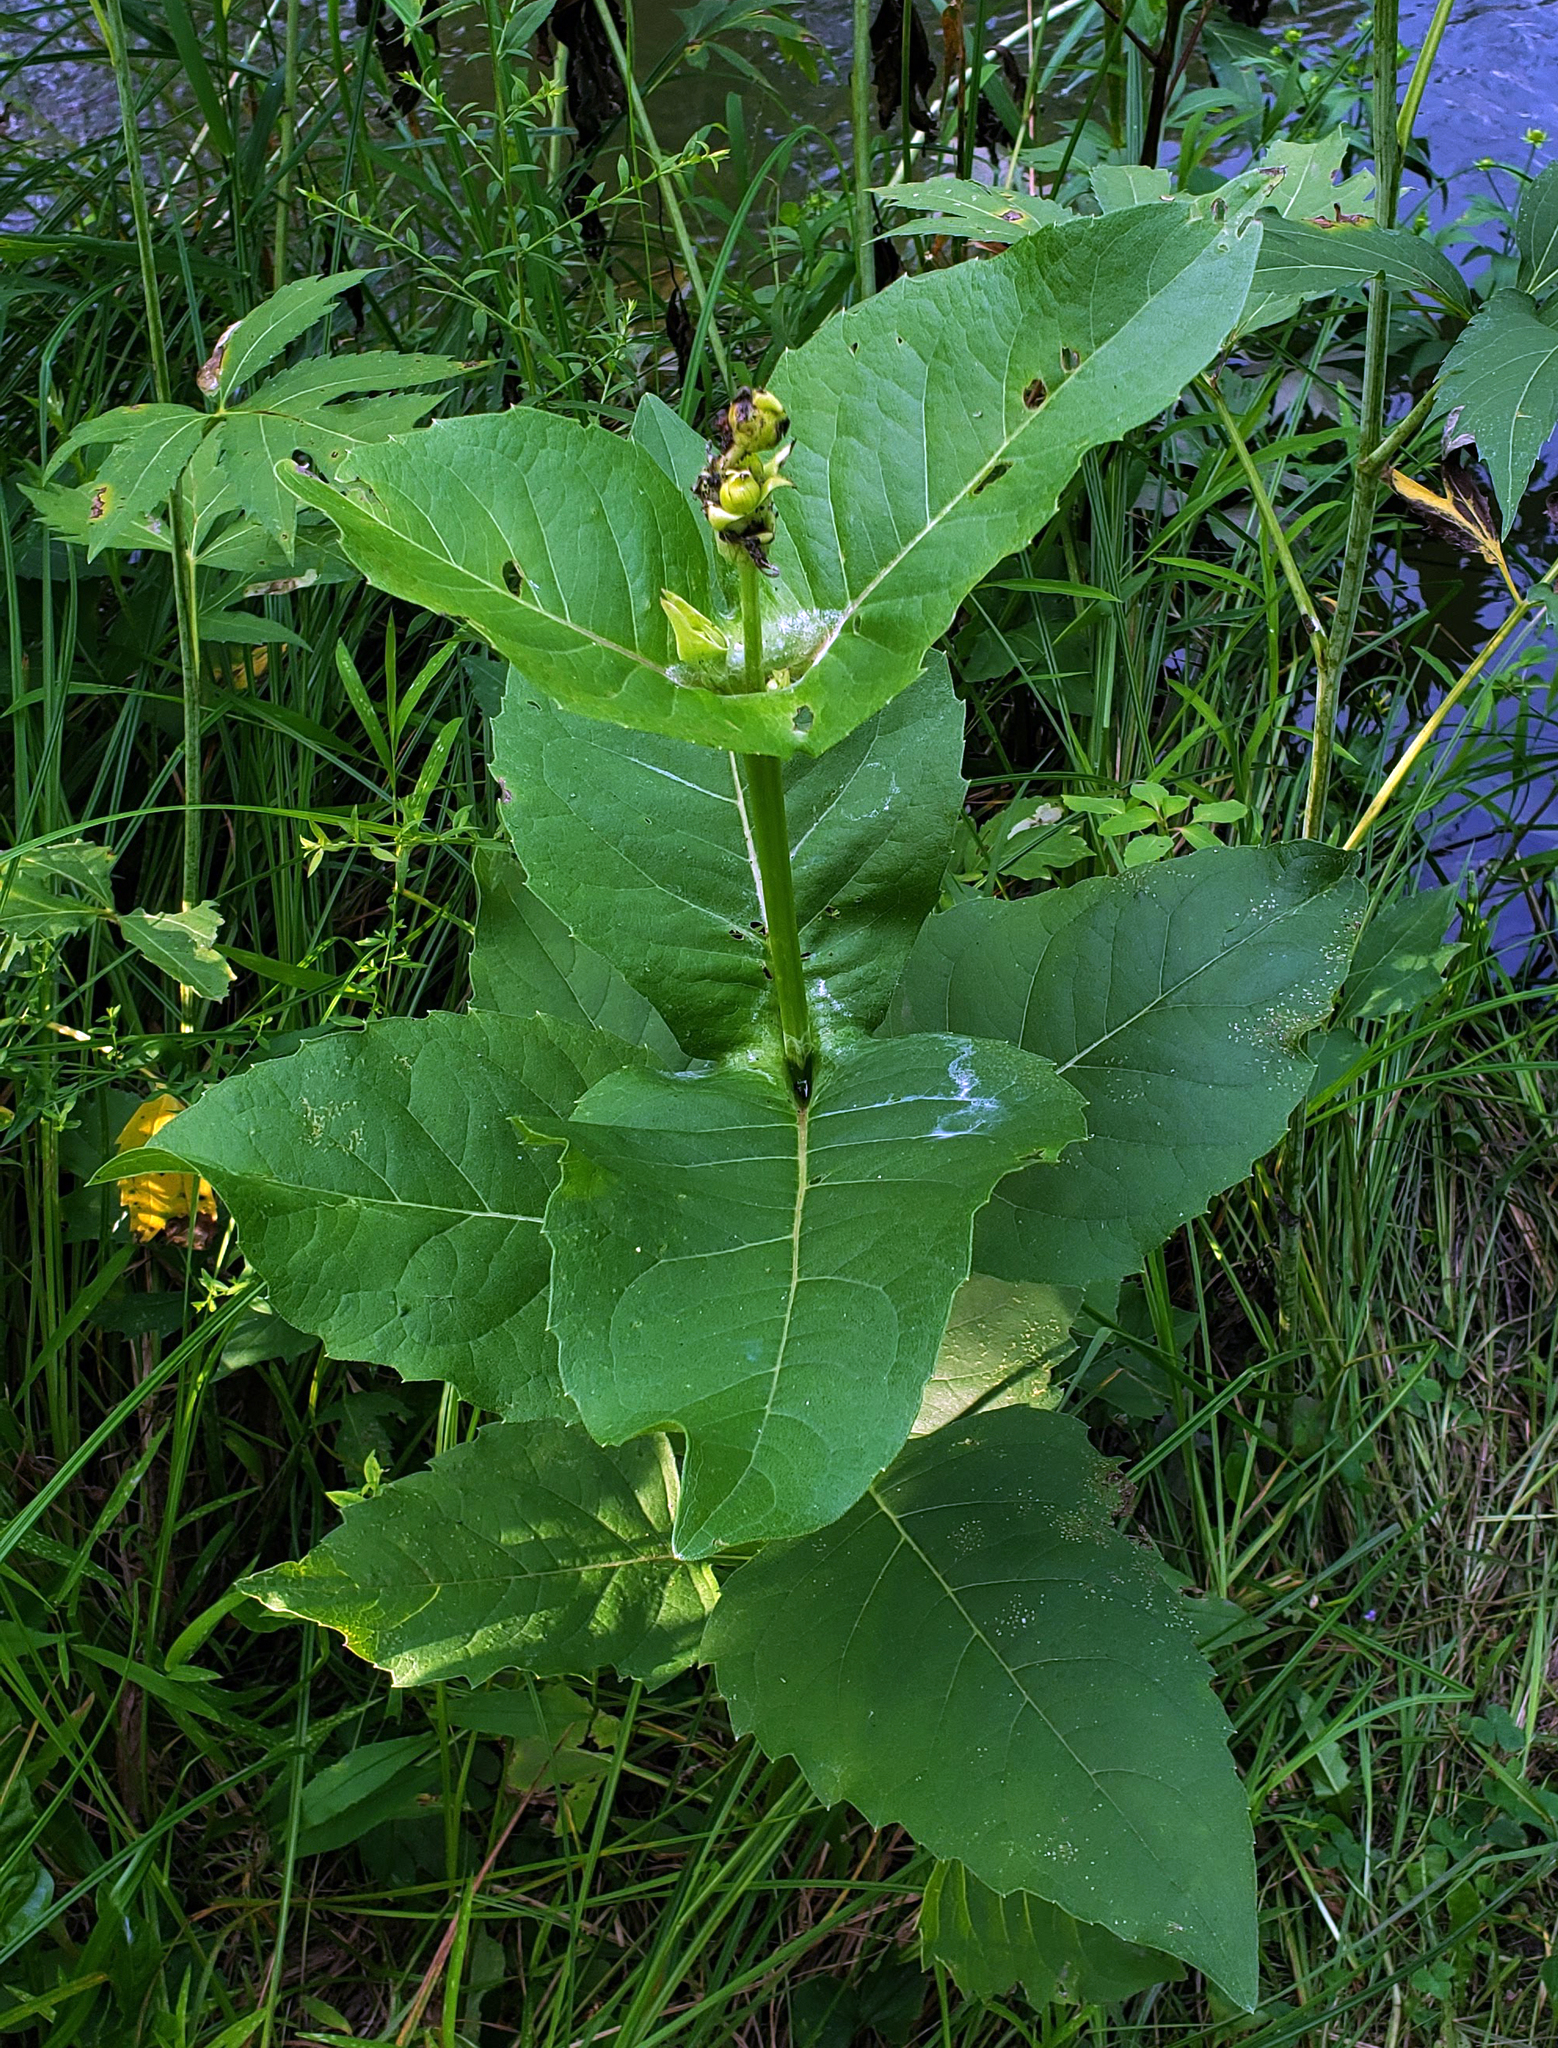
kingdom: Plantae
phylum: Tracheophyta
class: Magnoliopsida
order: Asterales
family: Asteraceae
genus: Silphium
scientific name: Silphium perfoliatum
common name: Cup-plant
